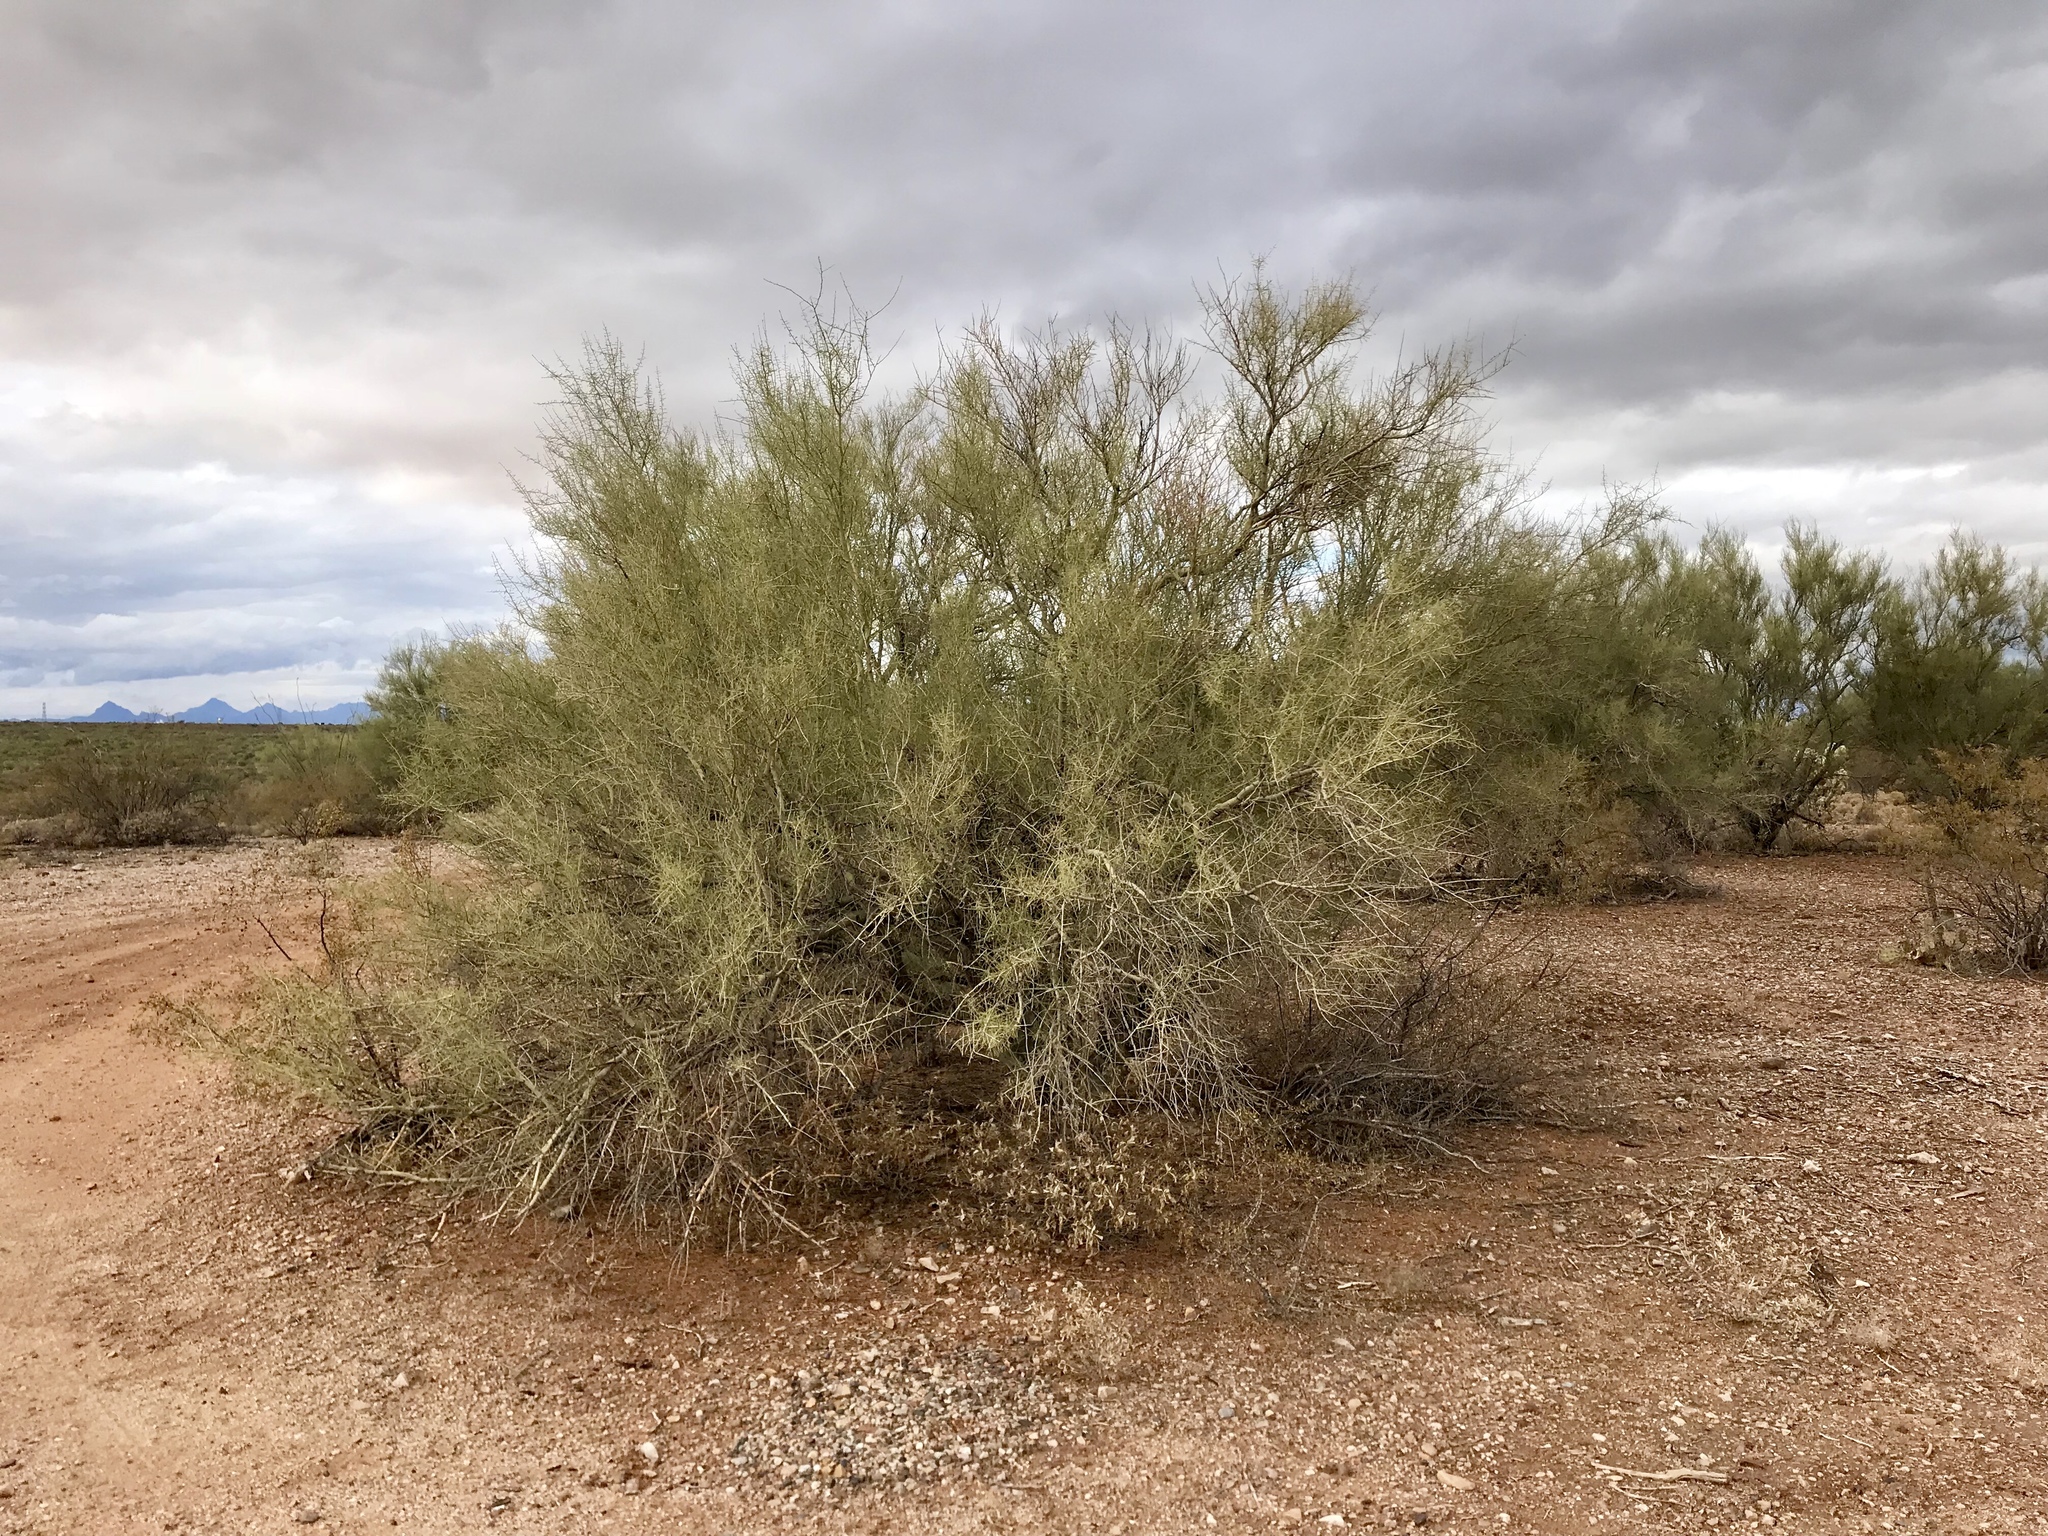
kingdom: Plantae
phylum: Tracheophyta
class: Magnoliopsida
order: Fabales
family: Fabaceae
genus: Parkinsonia
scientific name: Parkinsonia microphylla
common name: Yellow paloverde
